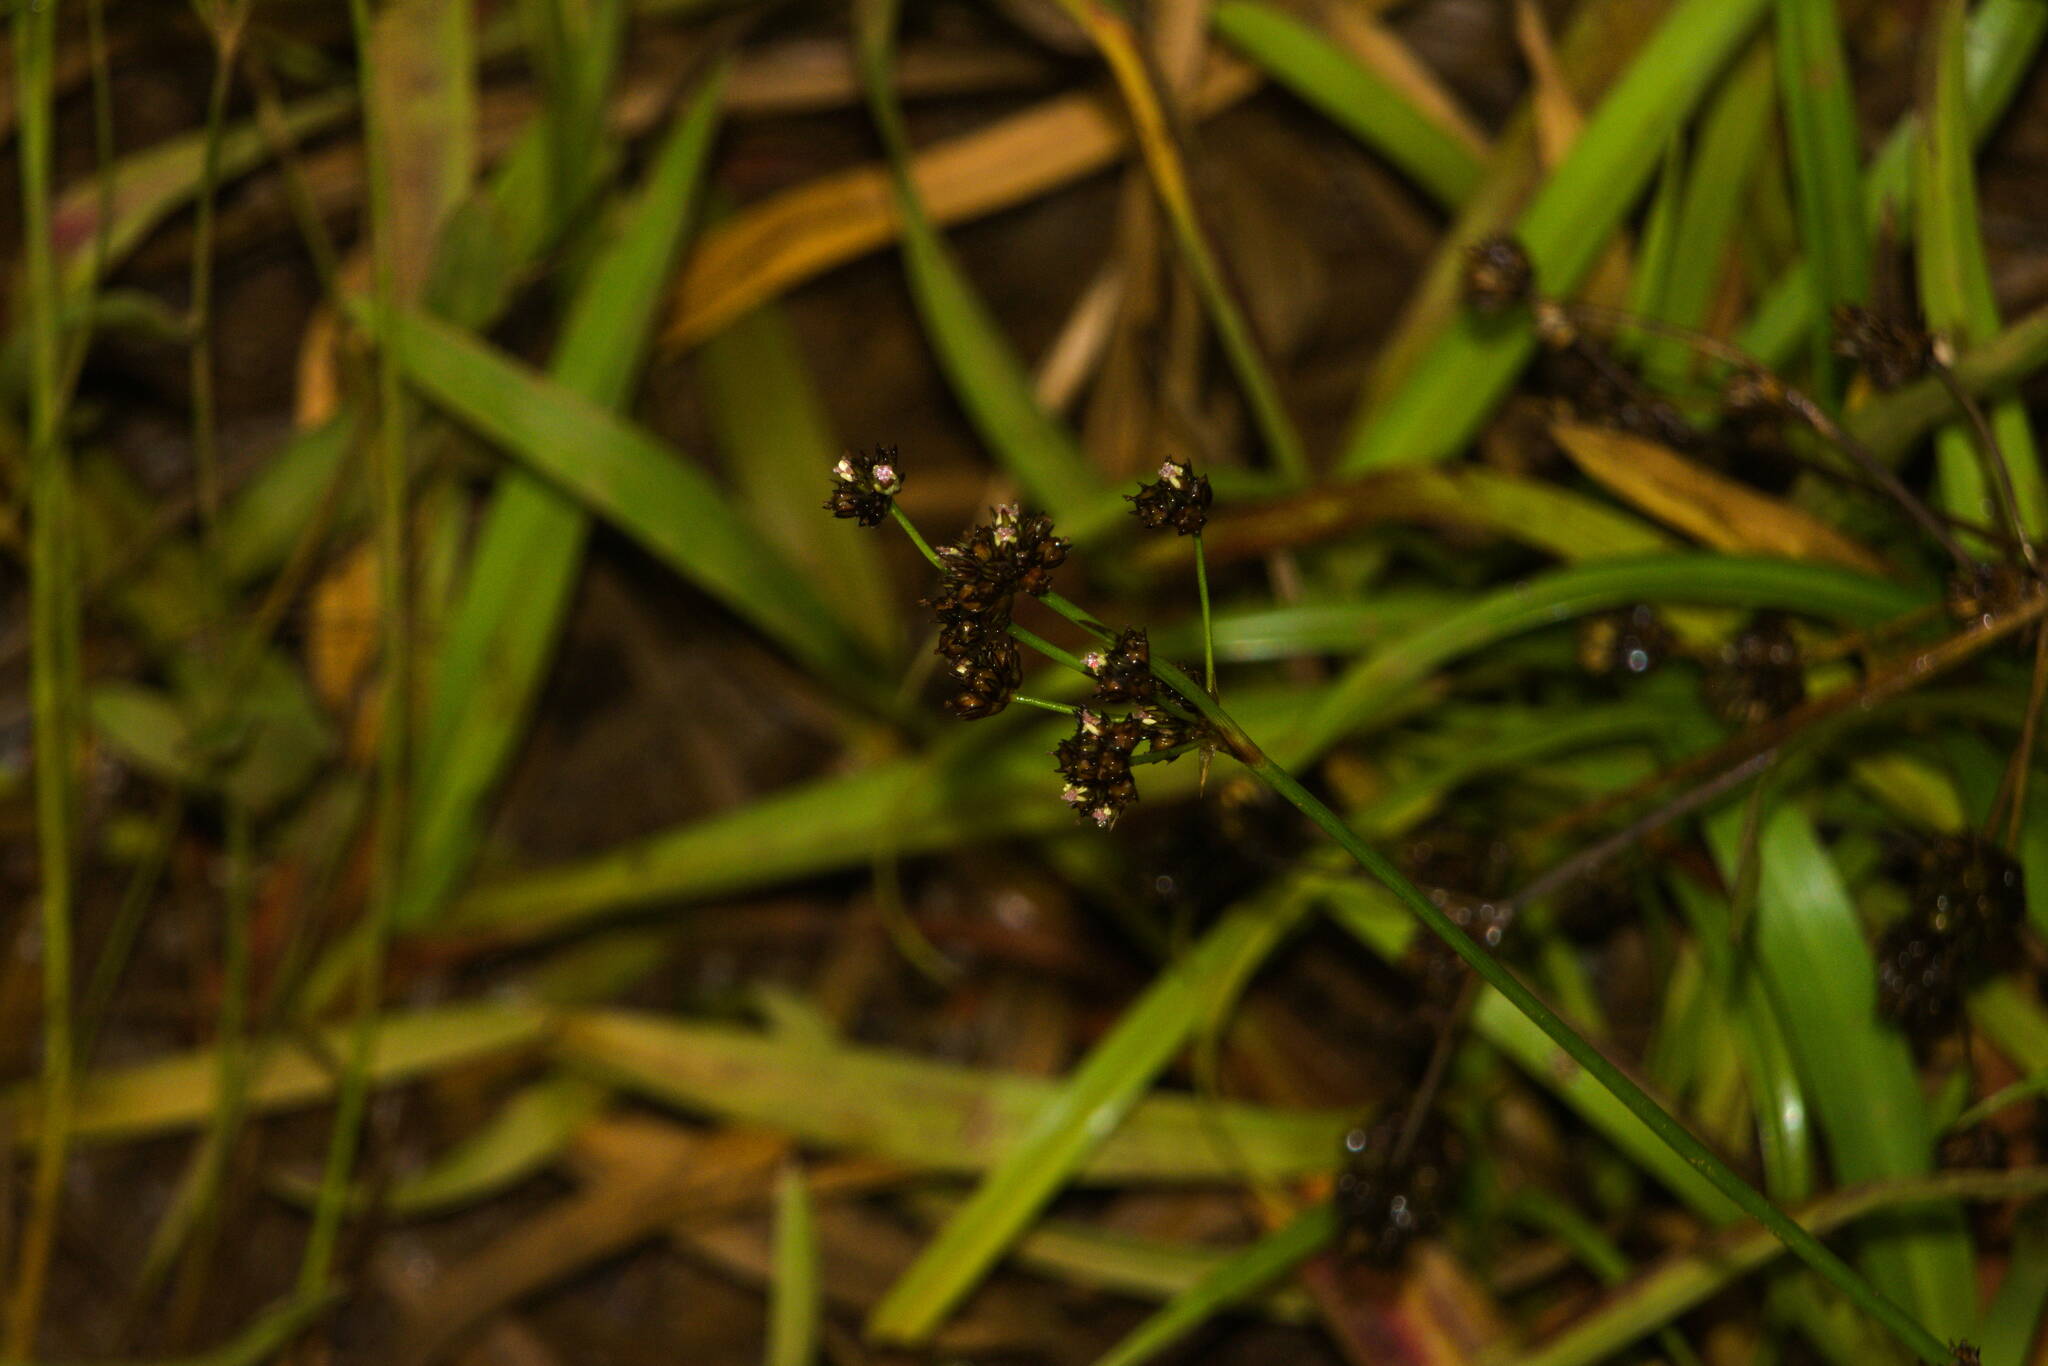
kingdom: Plantae
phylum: Tracheophyta
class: Liliopsida
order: Poales
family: Juncaceae
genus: Juncus
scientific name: Juncus planifolius
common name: Broadleaf rush
